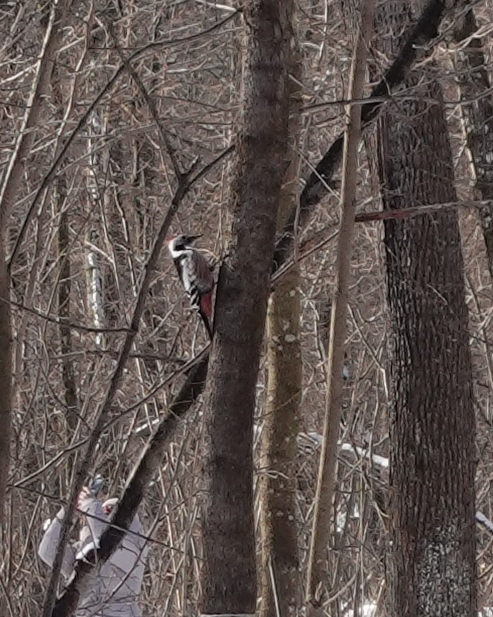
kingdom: Animalia
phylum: Chordata
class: Aves
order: Piciformes
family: Picidae
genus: Dendrocoptes
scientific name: Dendrocoptes medius
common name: Middle spotted woodpecker
